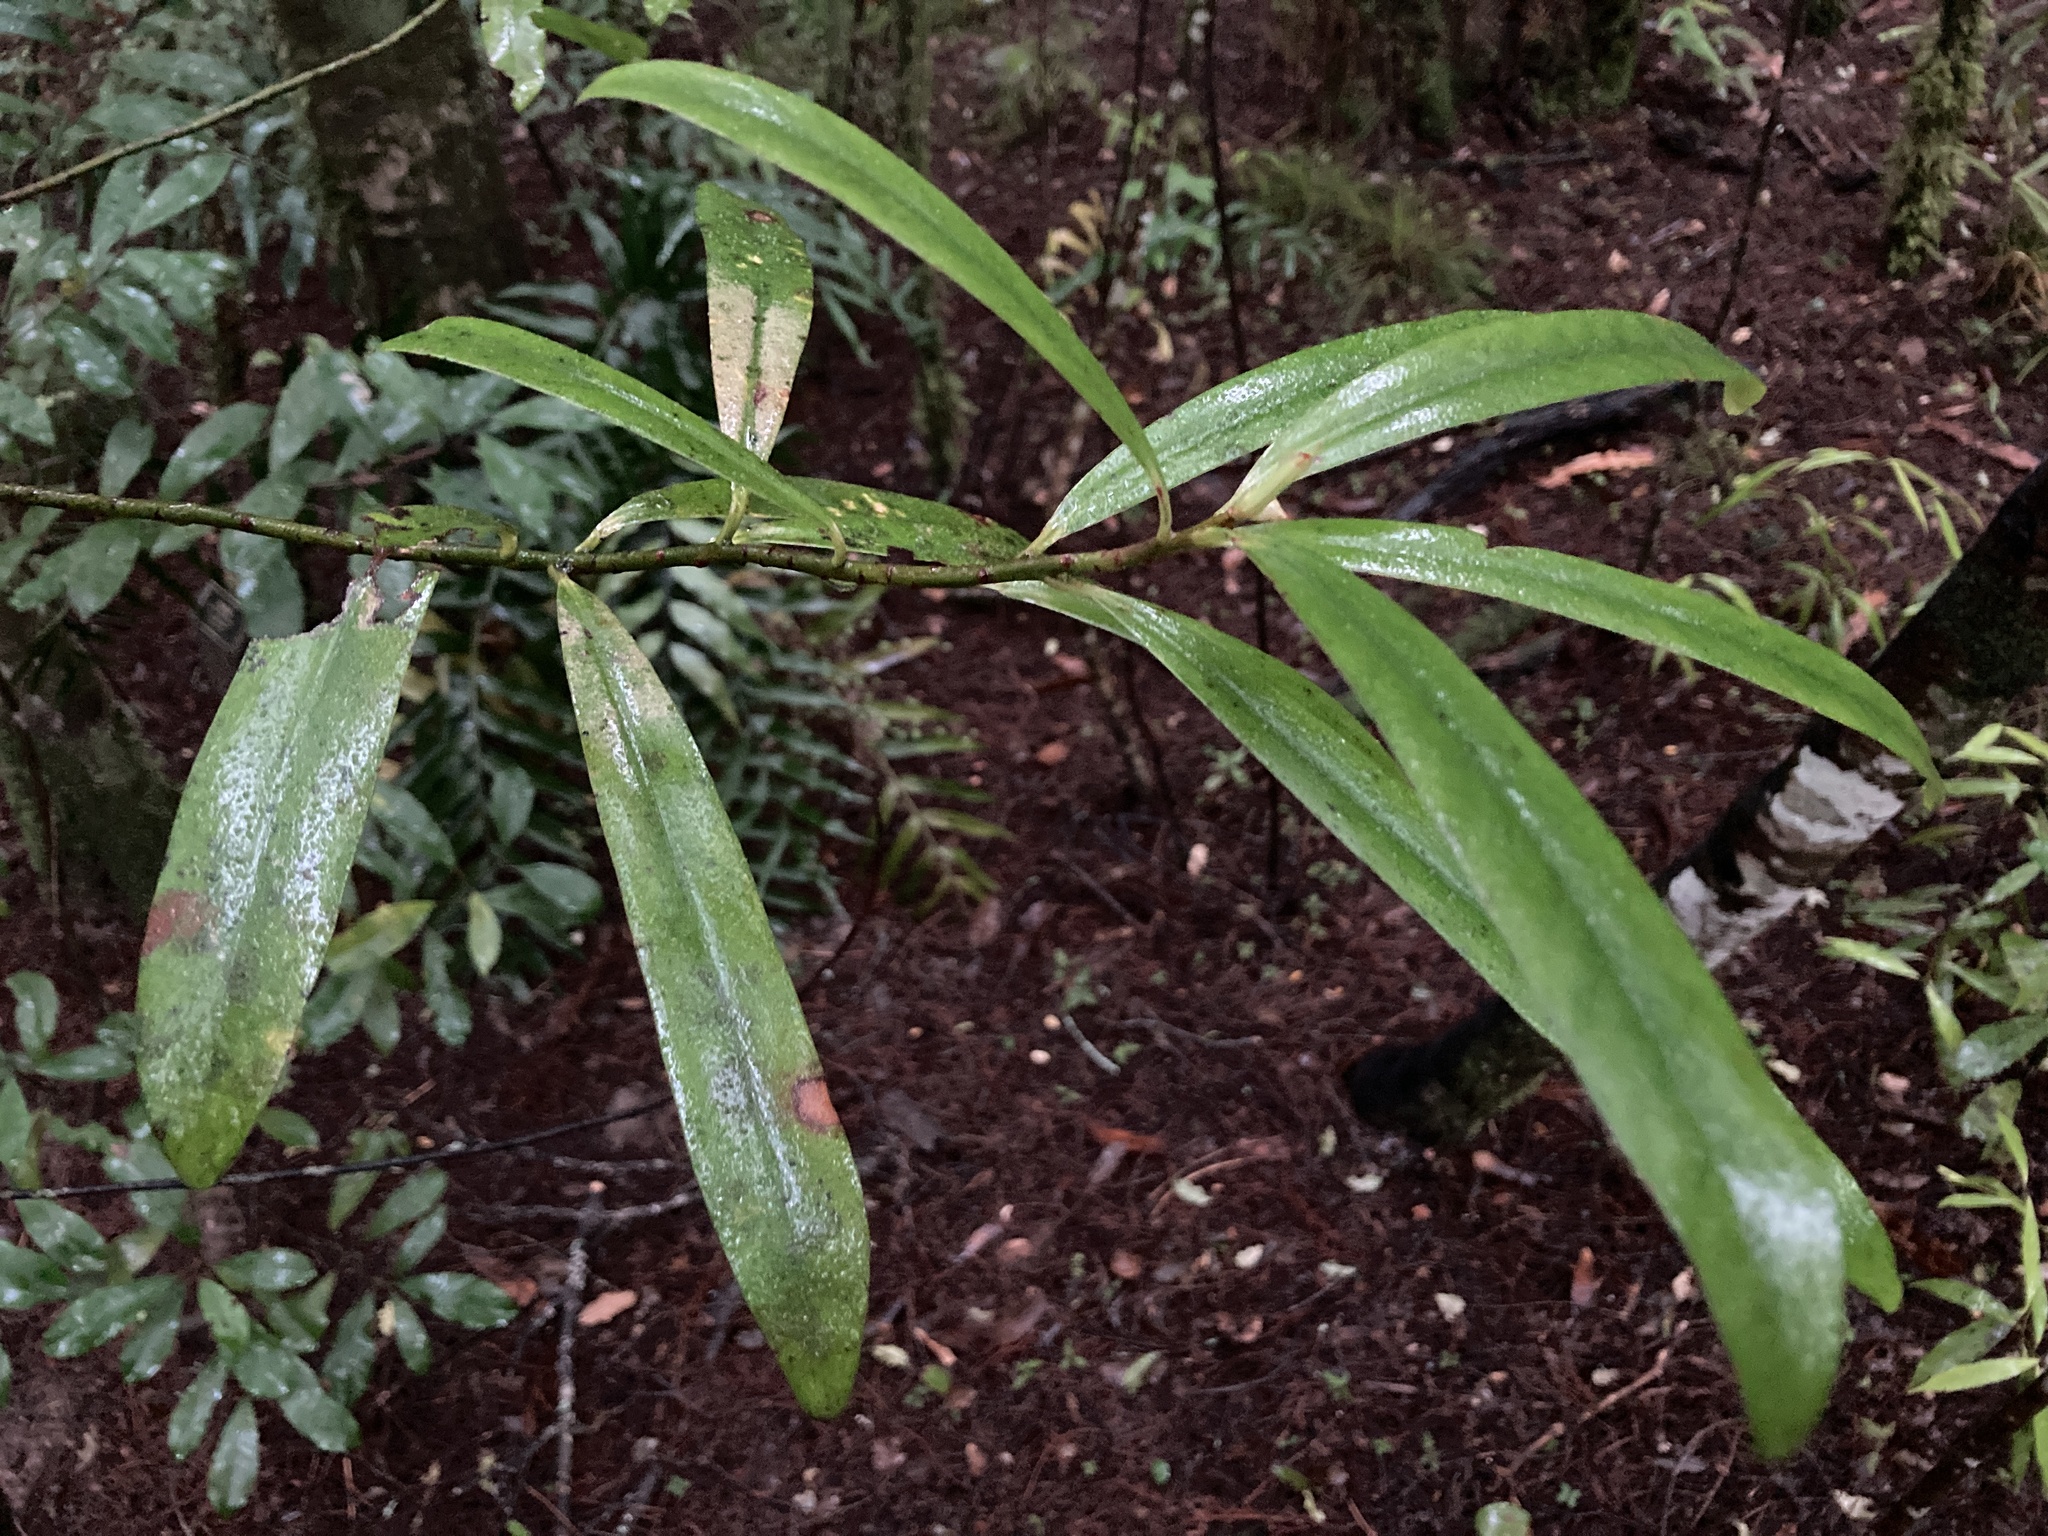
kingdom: Plantae
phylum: Tracheophyta
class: Magnoliopsida
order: Ericales
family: Primulaceae
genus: Myrsine
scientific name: Myrsine salicina
